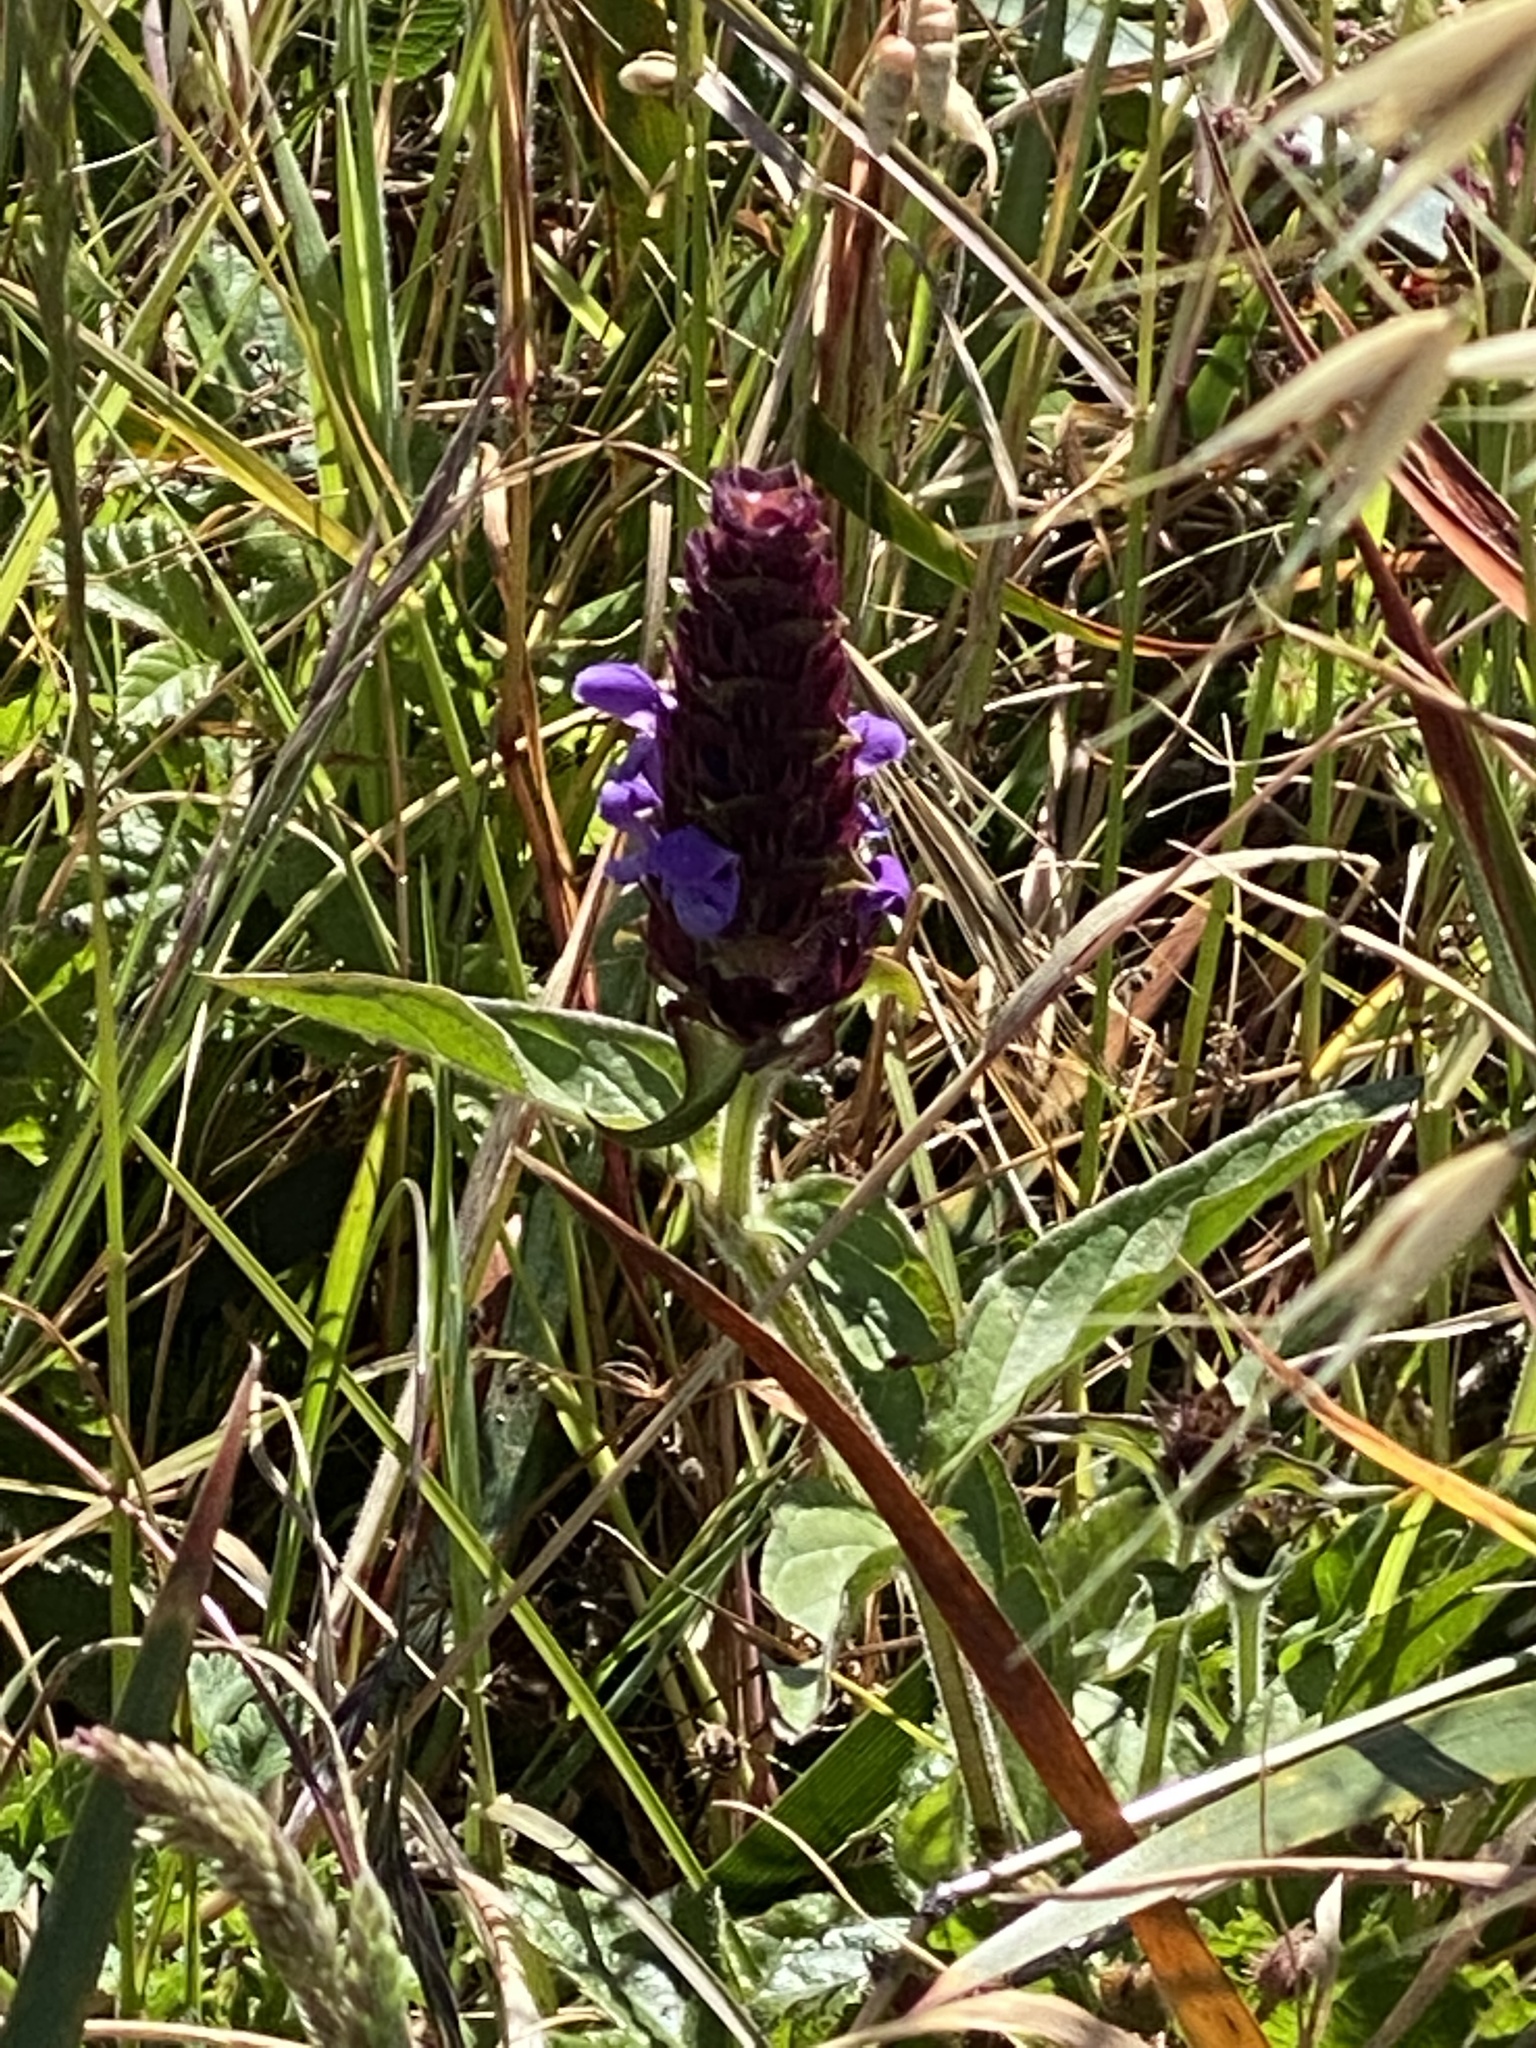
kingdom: Plantae
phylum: Tracheophyta
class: Magnoliopsida
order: Lamiales
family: Lamiaceae
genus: Prunella
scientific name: Prunella vulgaris
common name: Heal-all
